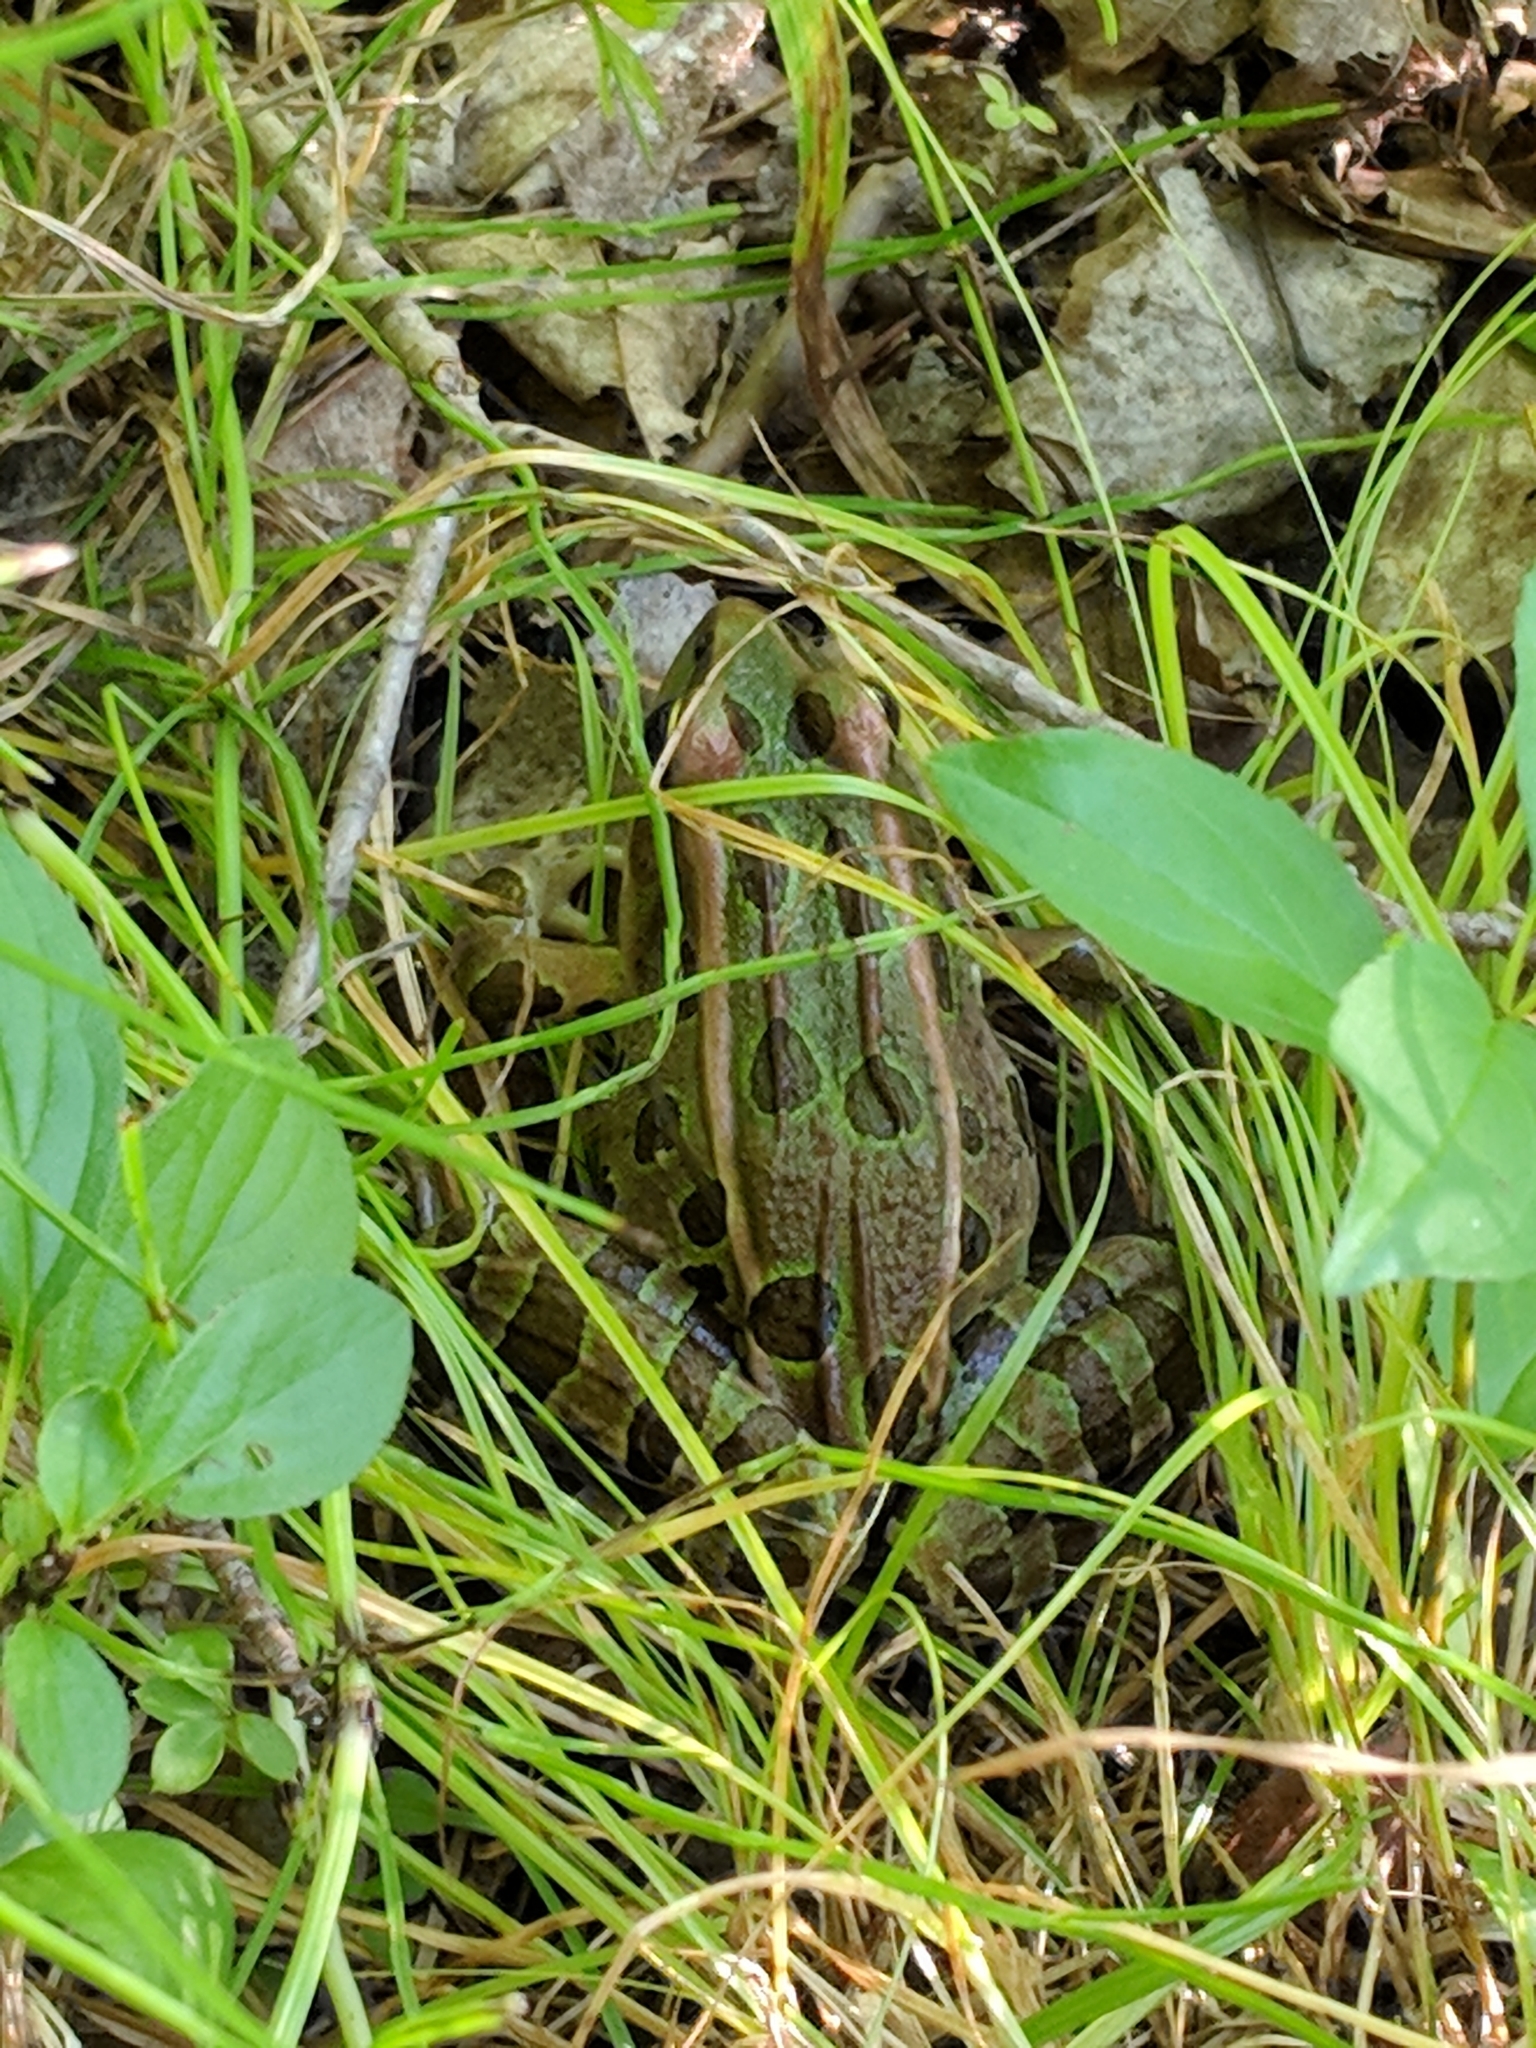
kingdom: Animalia
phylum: Chordata
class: Amphibia
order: Anura
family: Ranidae
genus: Lithobates
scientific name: Lithobates pipiens
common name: Northern leopard frog
